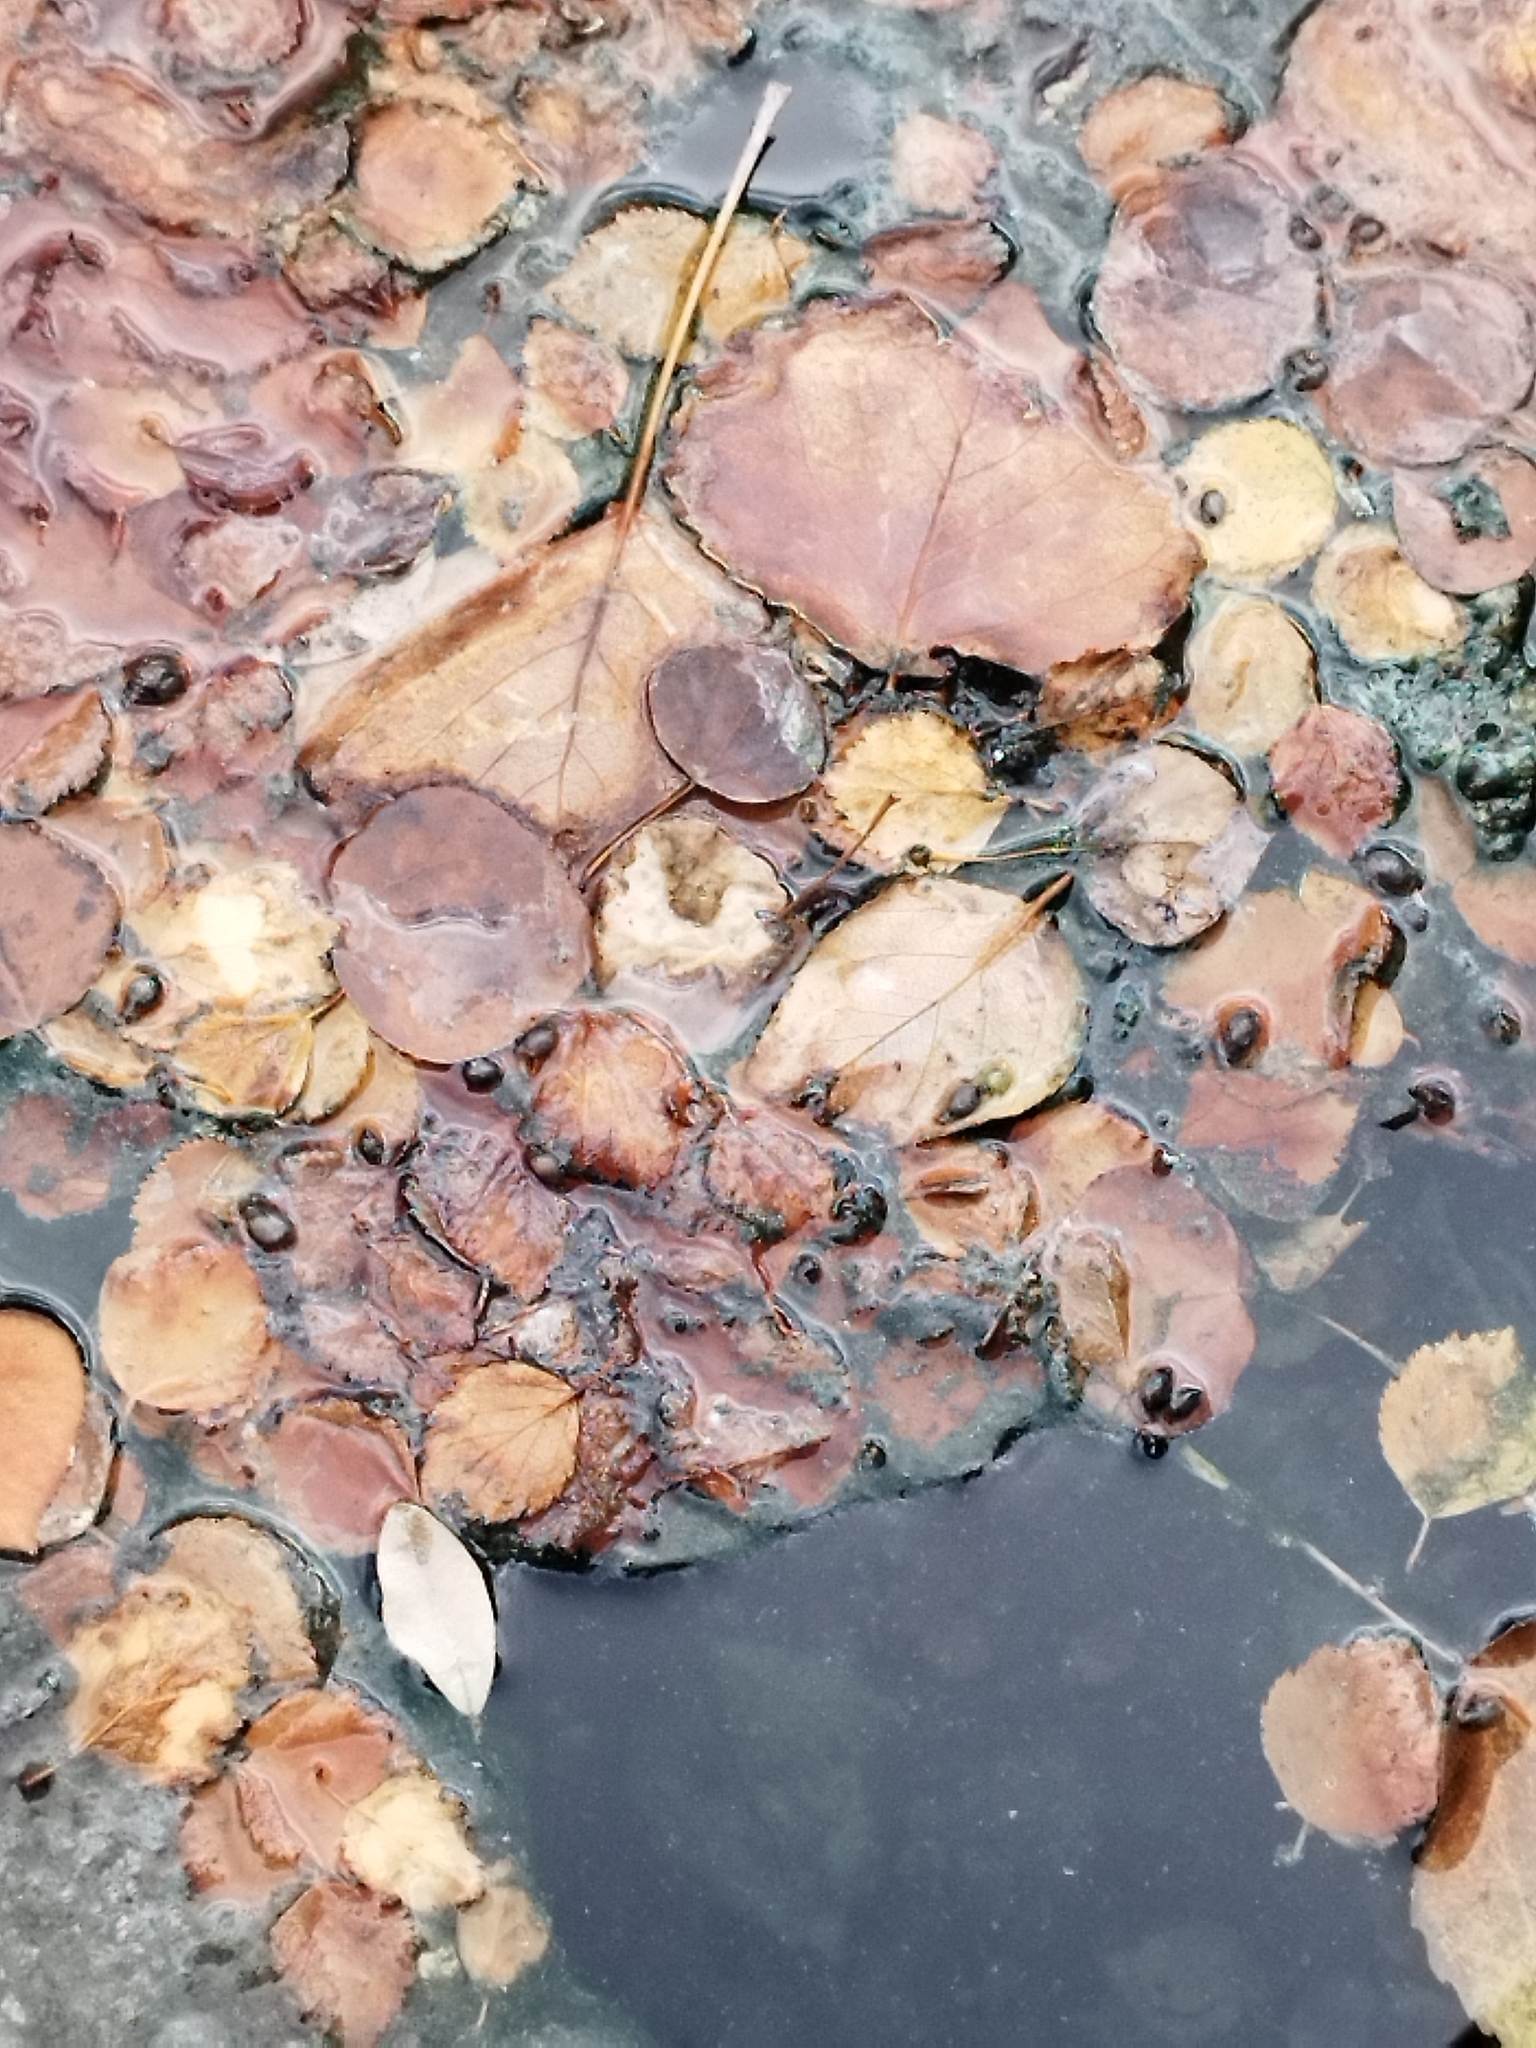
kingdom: Animalia
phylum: Mollusca
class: Gastropoda
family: Physidae
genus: Physella
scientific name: Physella johnsoni
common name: Banff springs physa
